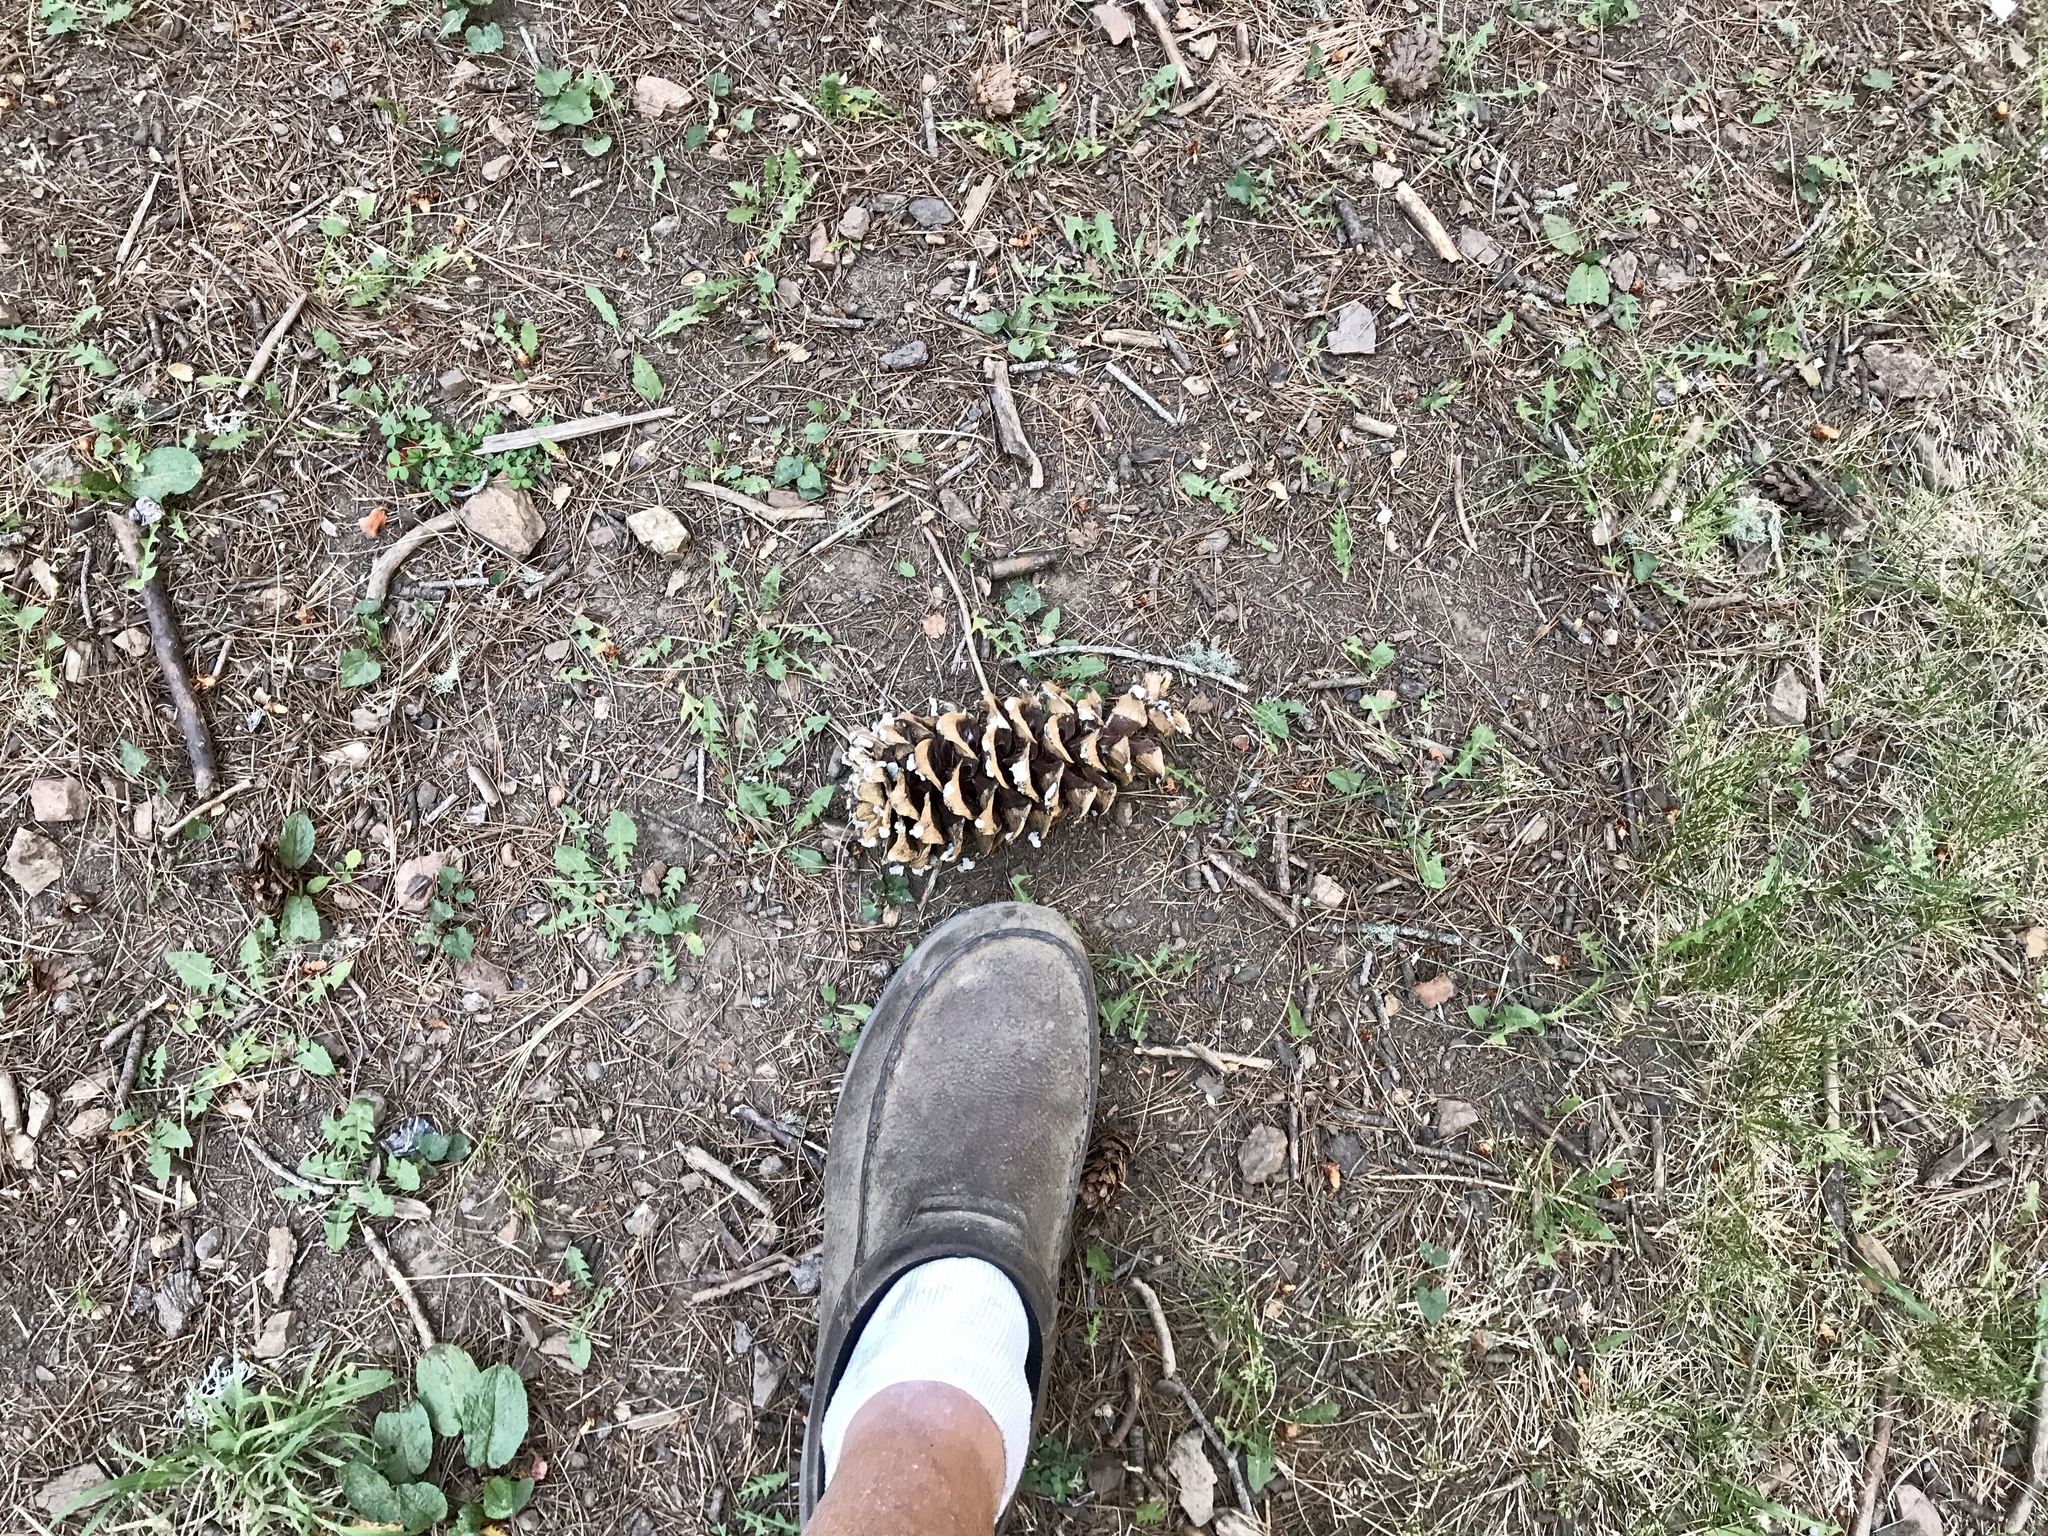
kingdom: Plantae
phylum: Tracheophyta
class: Pinopsida
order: Pinales
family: Pinaceae
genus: Pinus
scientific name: Pinus strobiformis
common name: Southwestern white pine
